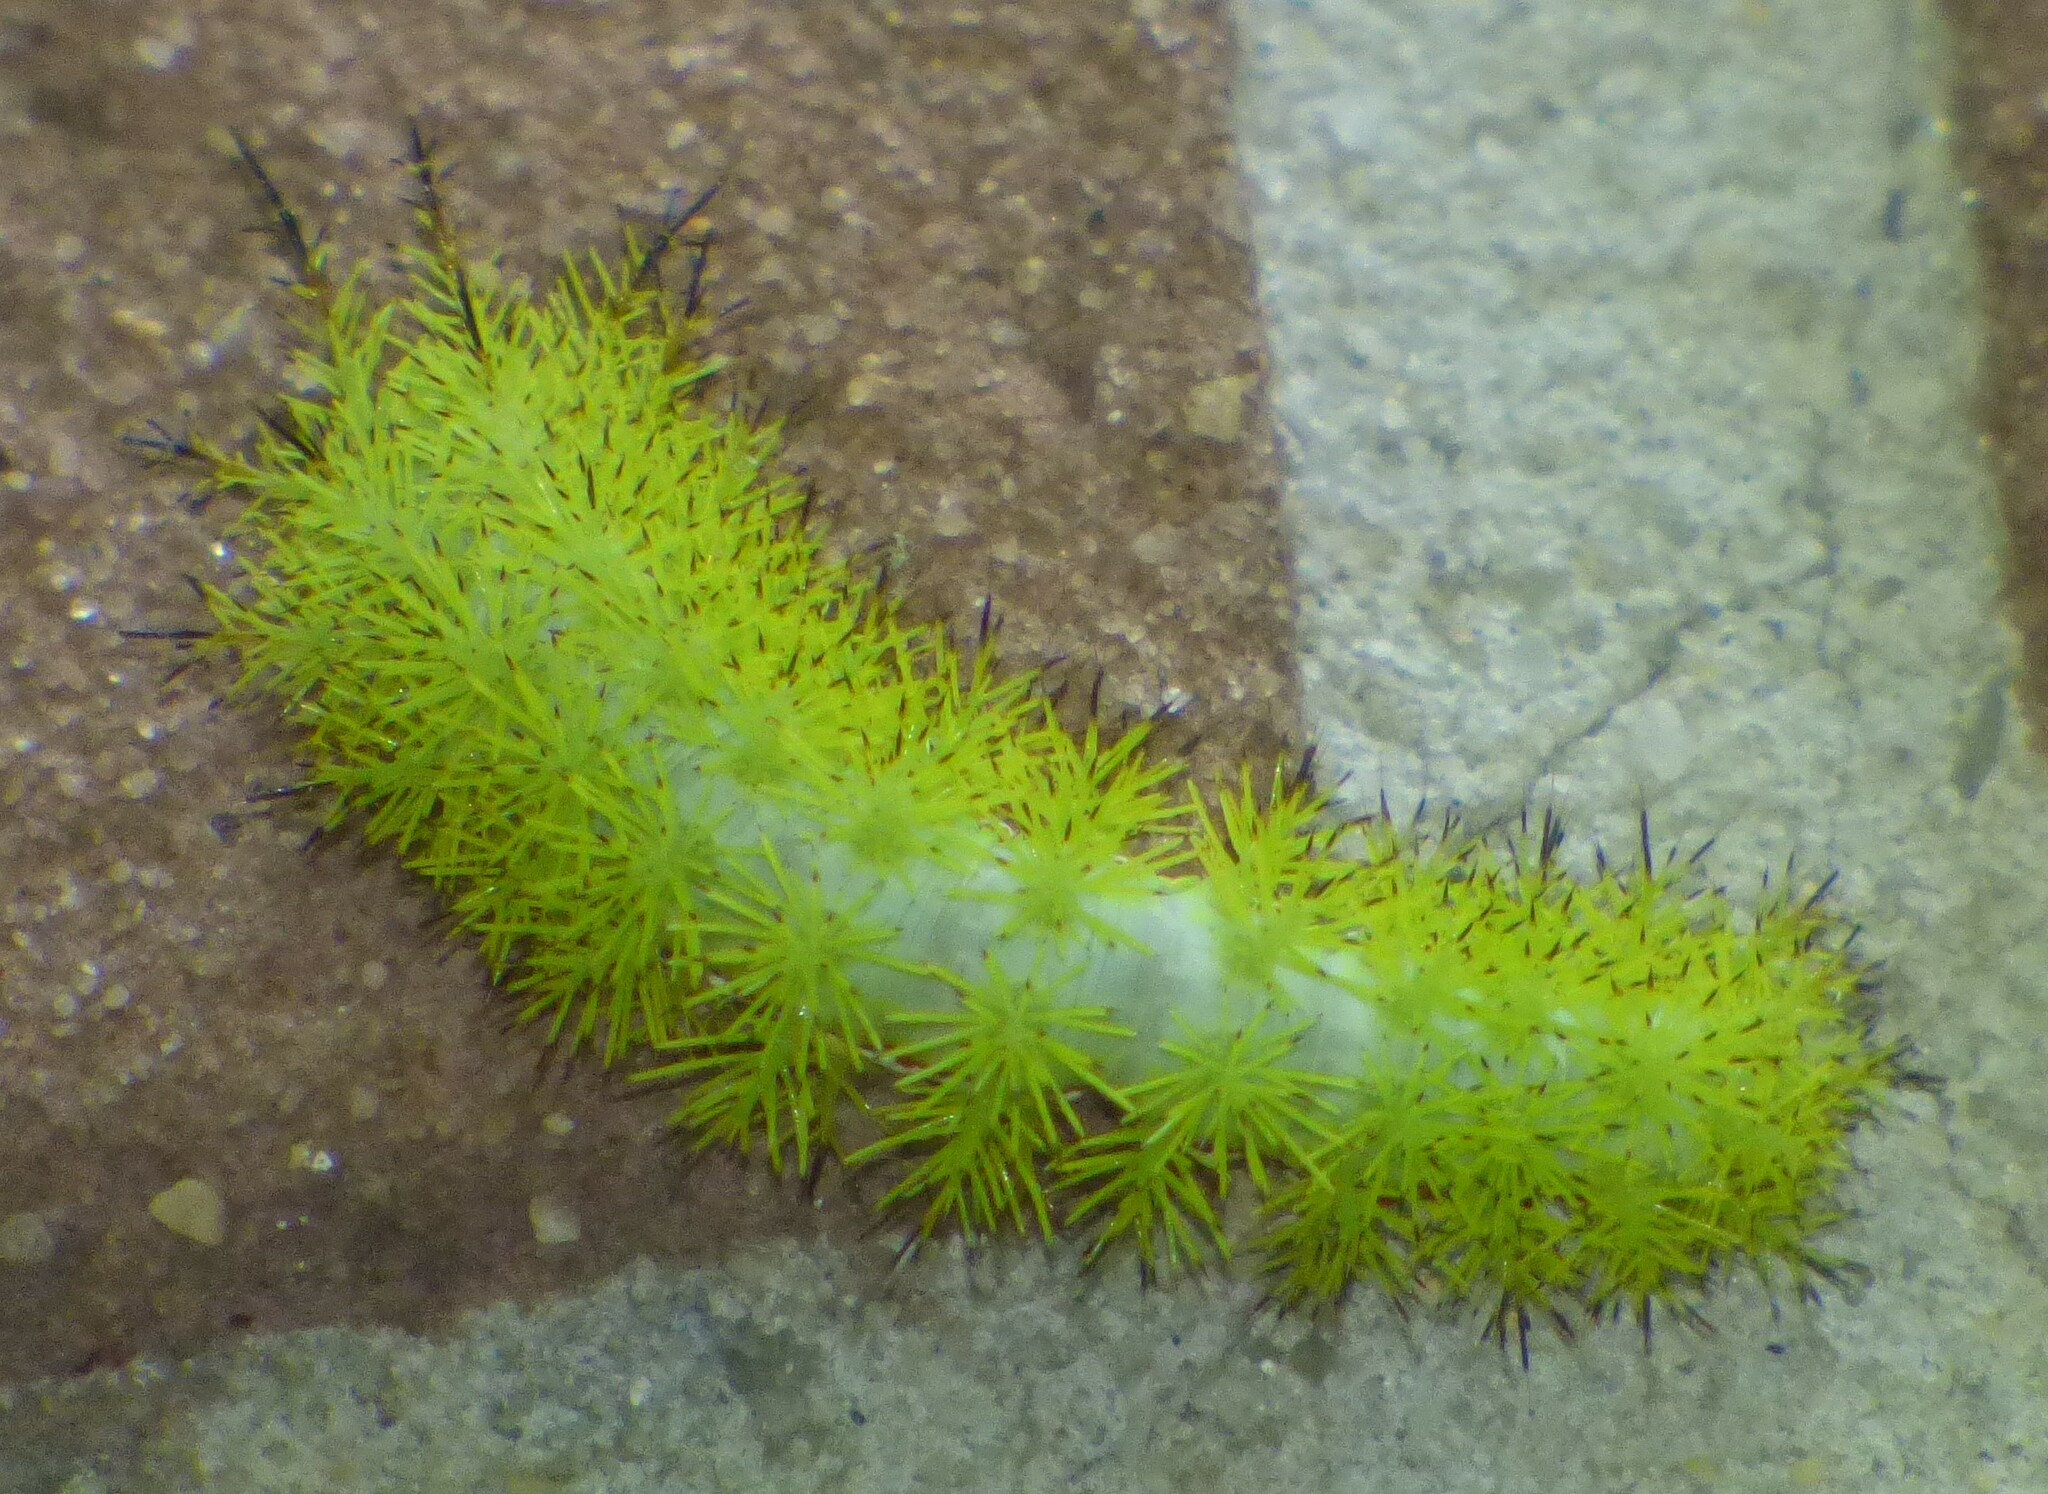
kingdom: Animalia
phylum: Arthropoda
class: Insecta
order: Lepidoptera
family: Saturniidae
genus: Automeris
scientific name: Automeris io
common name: Io moth
